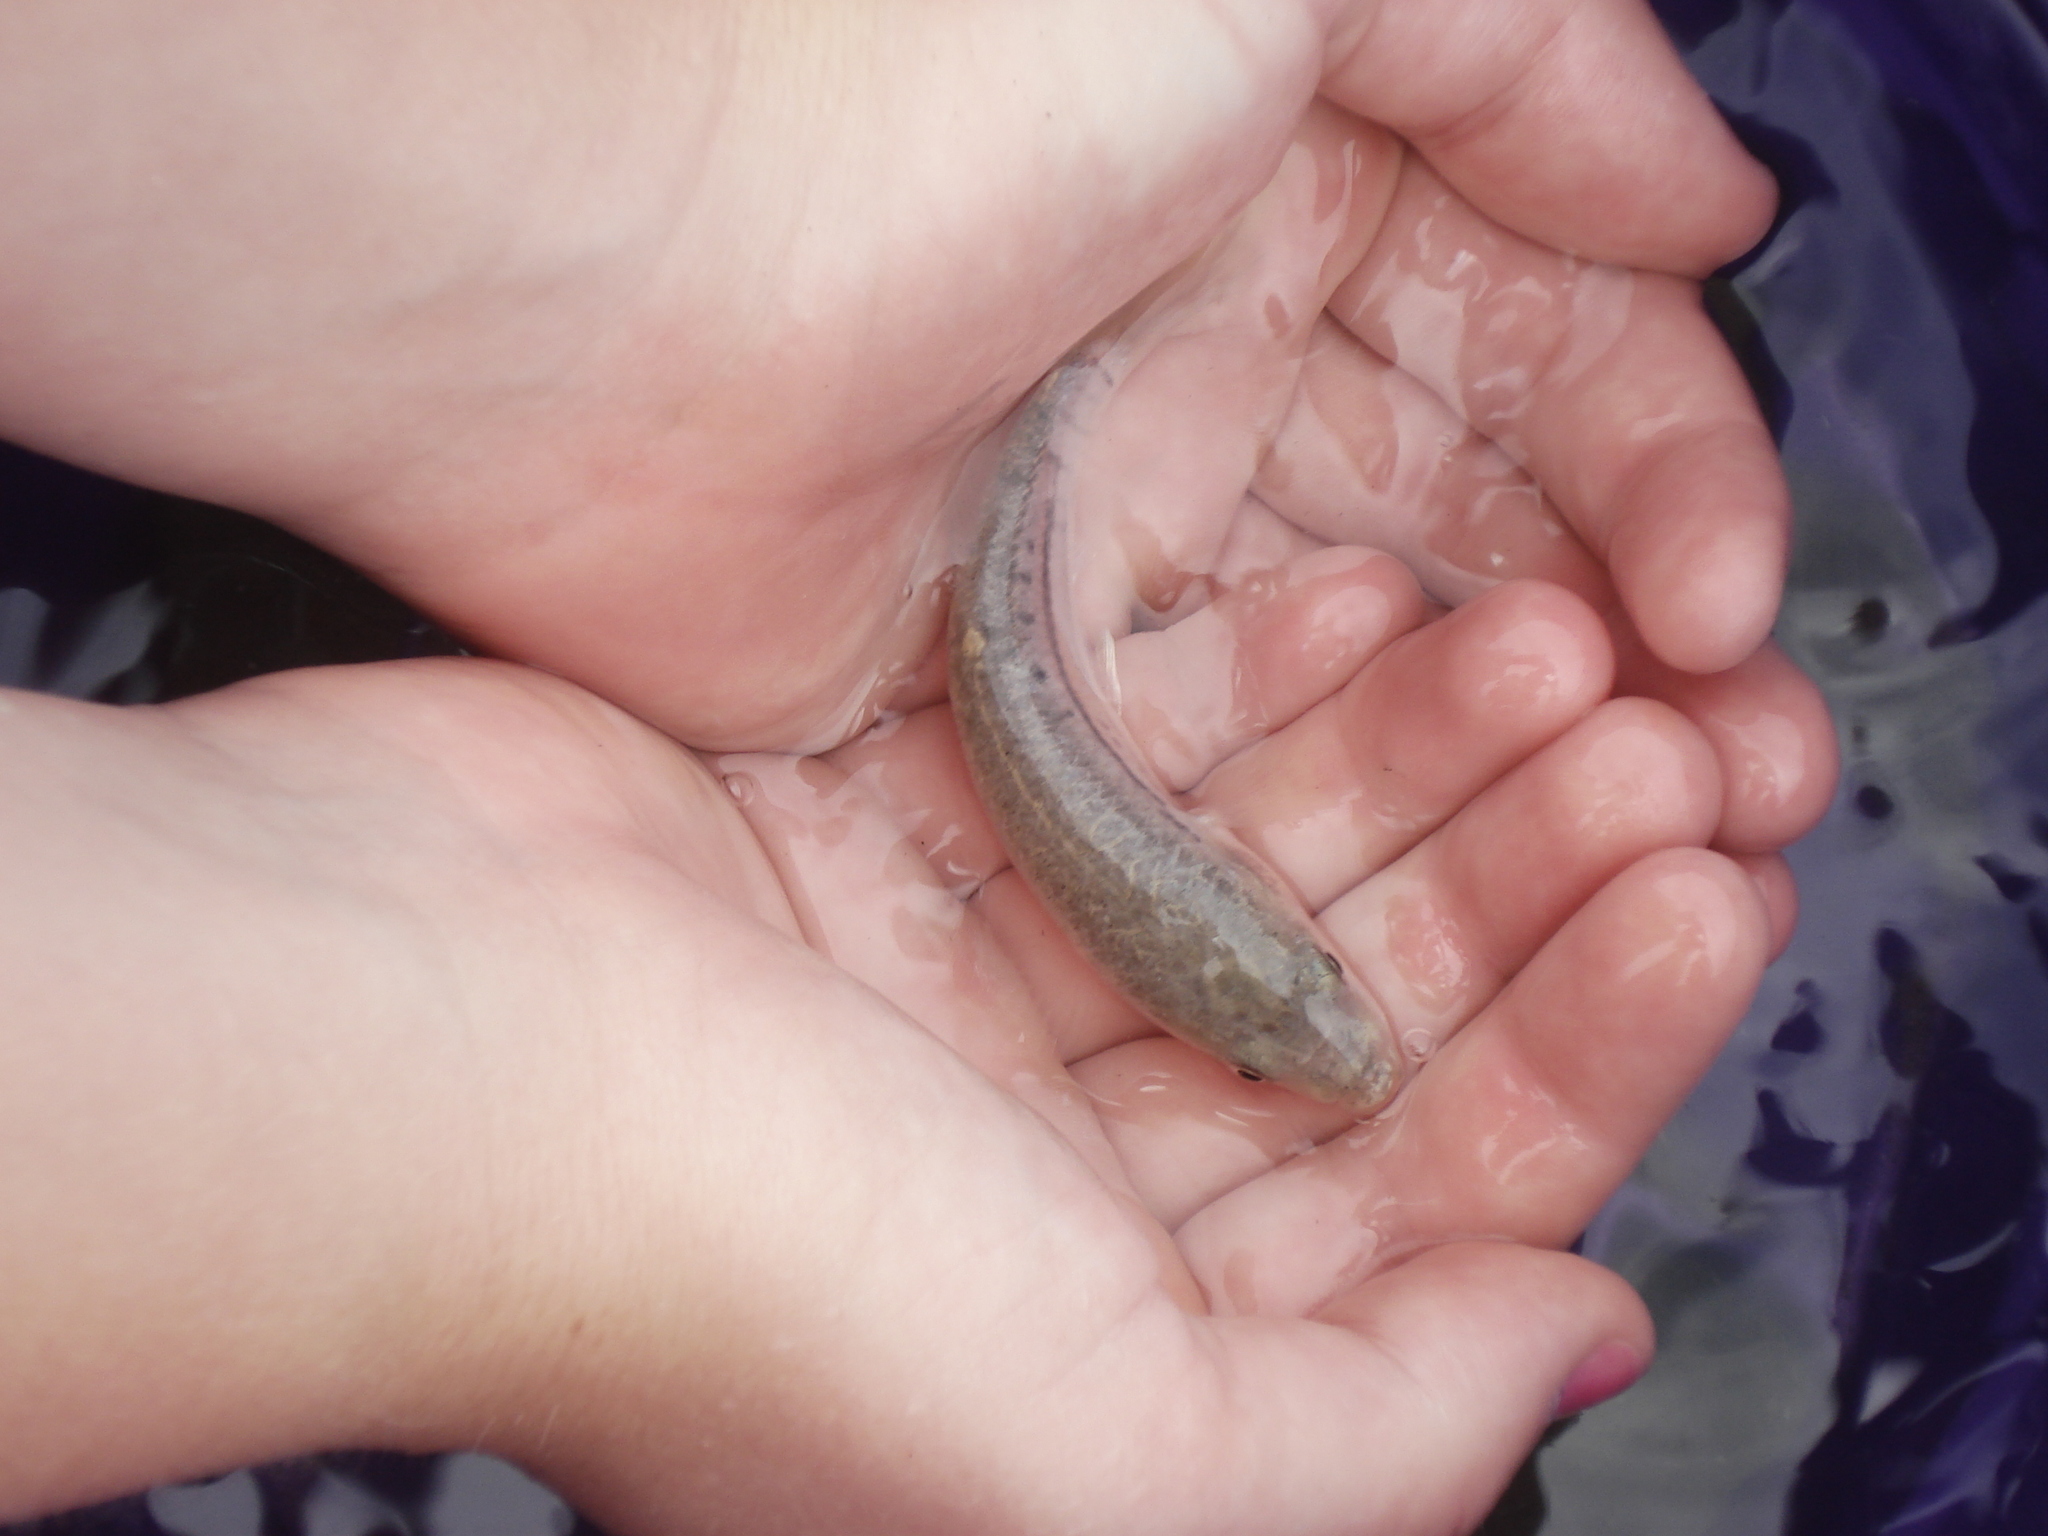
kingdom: Animalia
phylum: Chordata
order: Cyprinodontiformes
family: Fundulidae
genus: Fundulus
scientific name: Fundulus majalis
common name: Striped killifish
